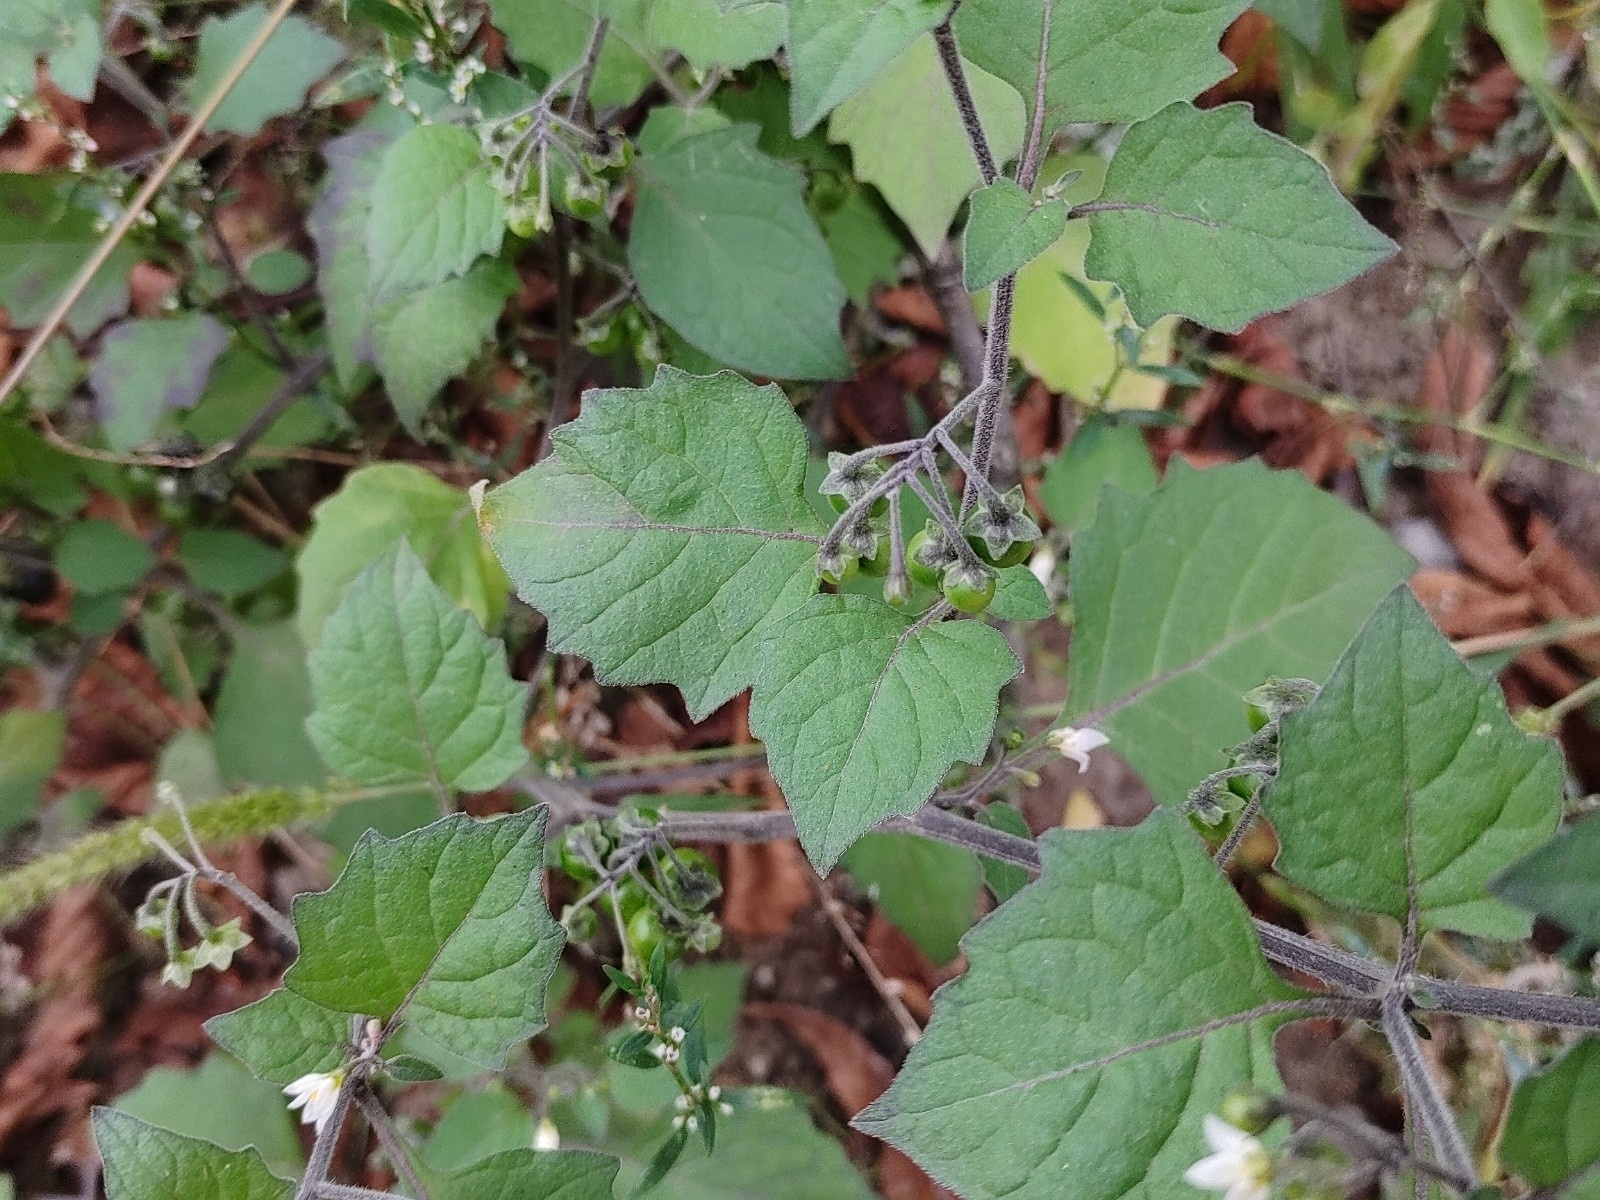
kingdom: Plantae
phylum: Tracheophyta
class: Magnoliopsida
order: Solanales
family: Solanaceae
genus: Solanum
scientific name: Solanum nigrum
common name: Black nightshade
